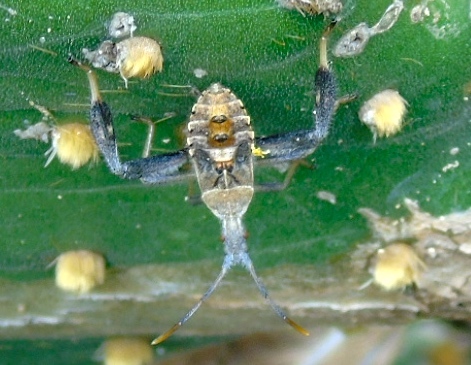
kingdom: Animalia
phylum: Arthropoda
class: Insecta
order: Hemiptera
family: Coreidae
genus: Narnia
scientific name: Narnia
